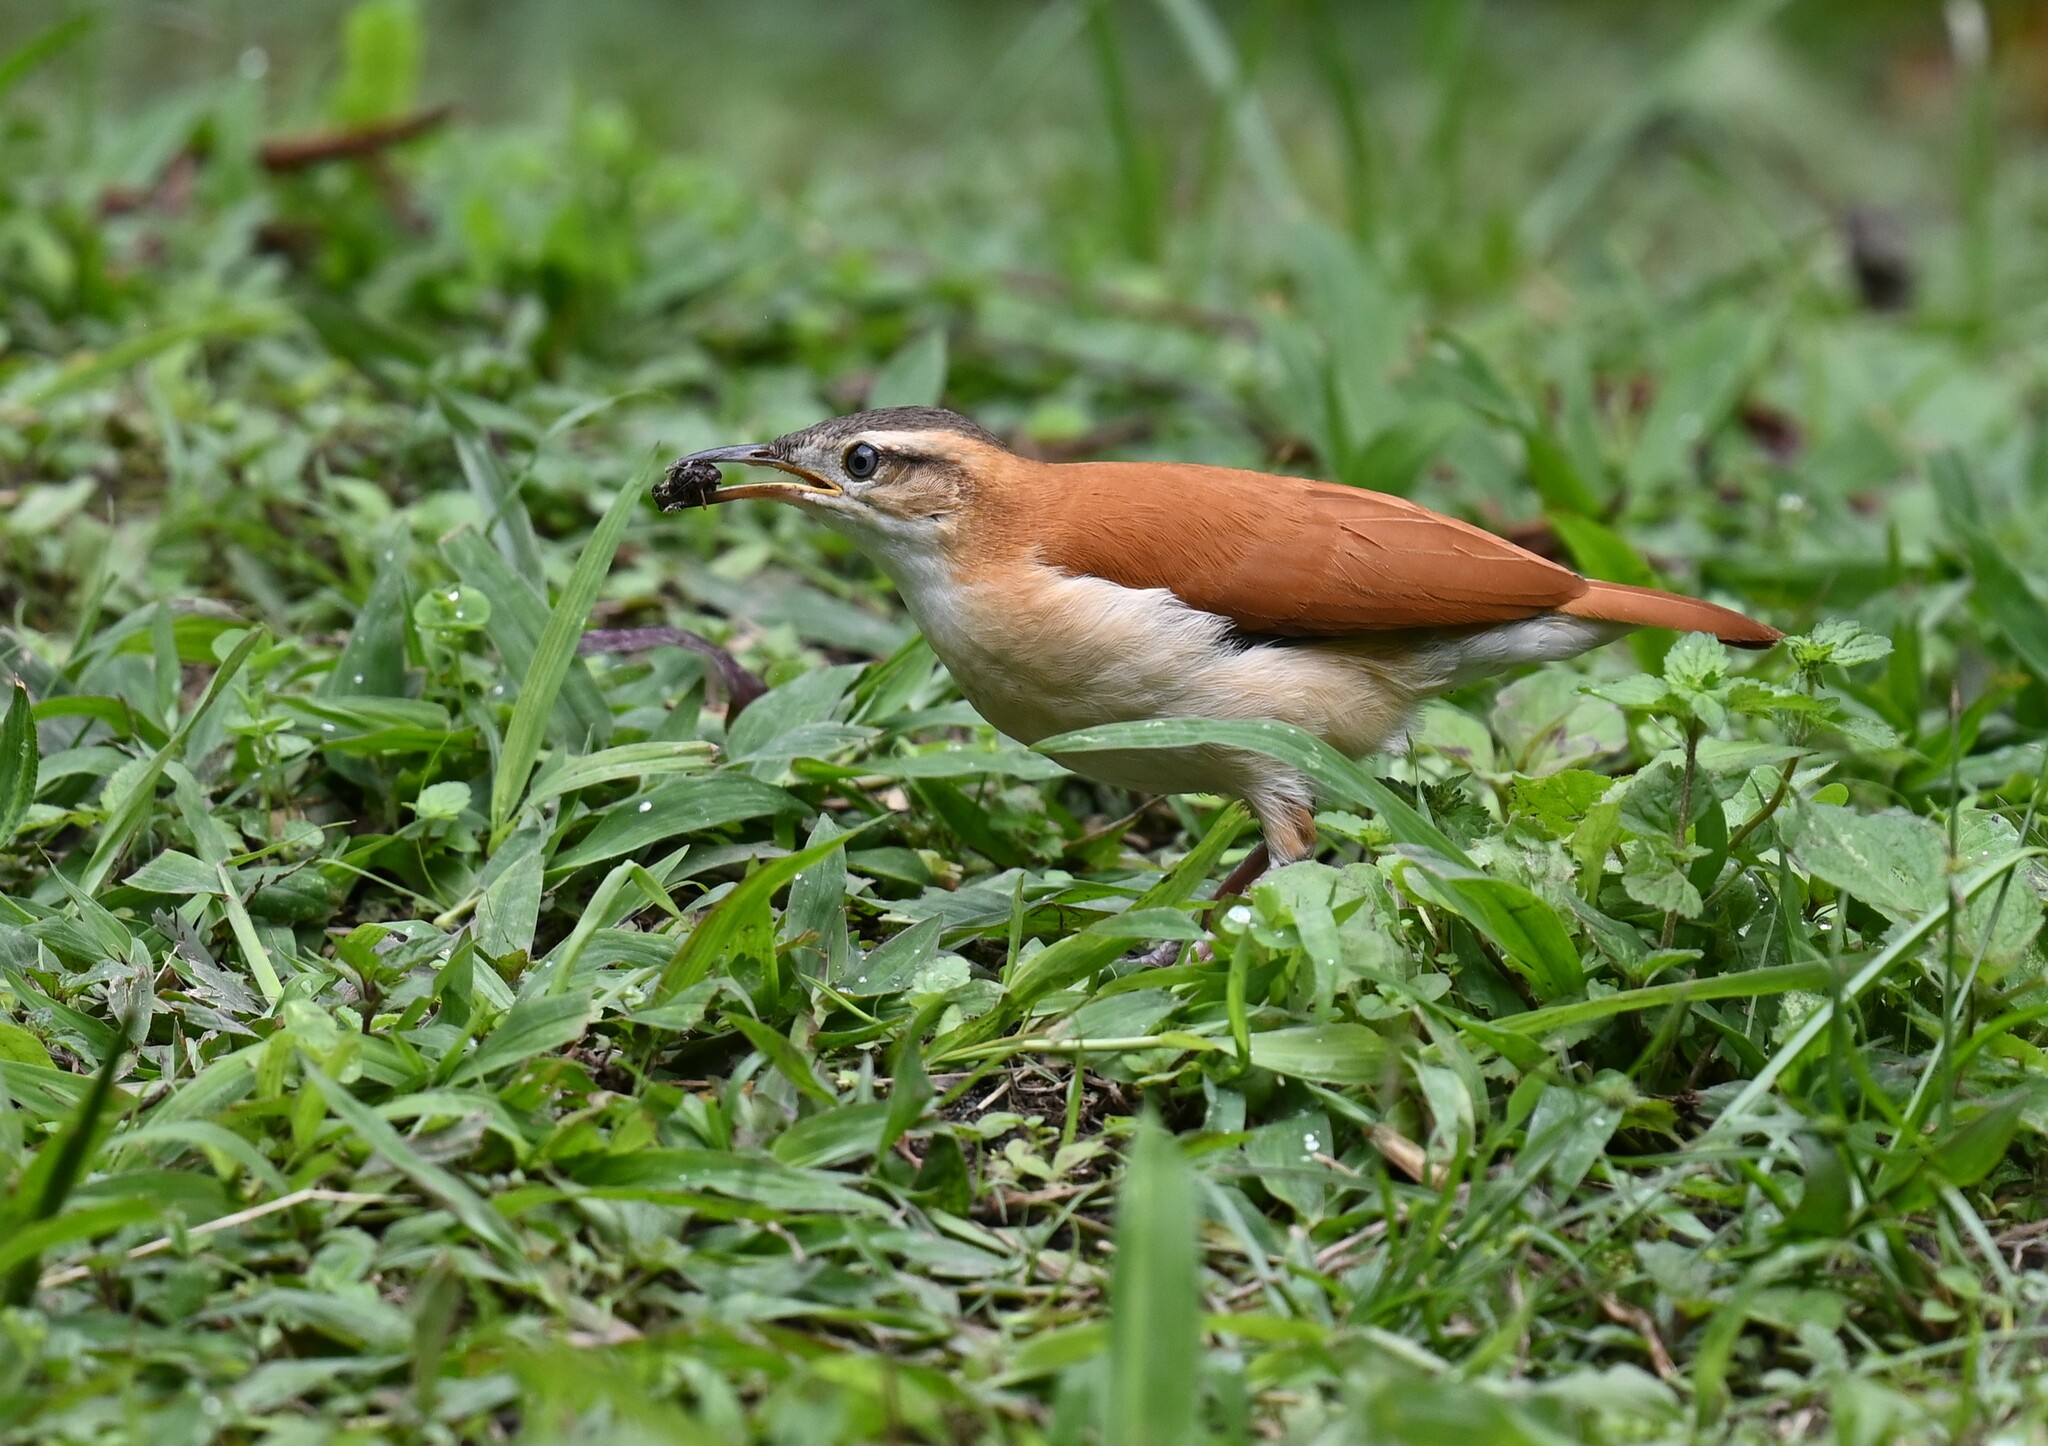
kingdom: Animalia
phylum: Chordata
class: Aves
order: Passeriformes
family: Furnariidae
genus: Furnarius
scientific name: Furnarius leucopus
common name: Pale-legged hornero
